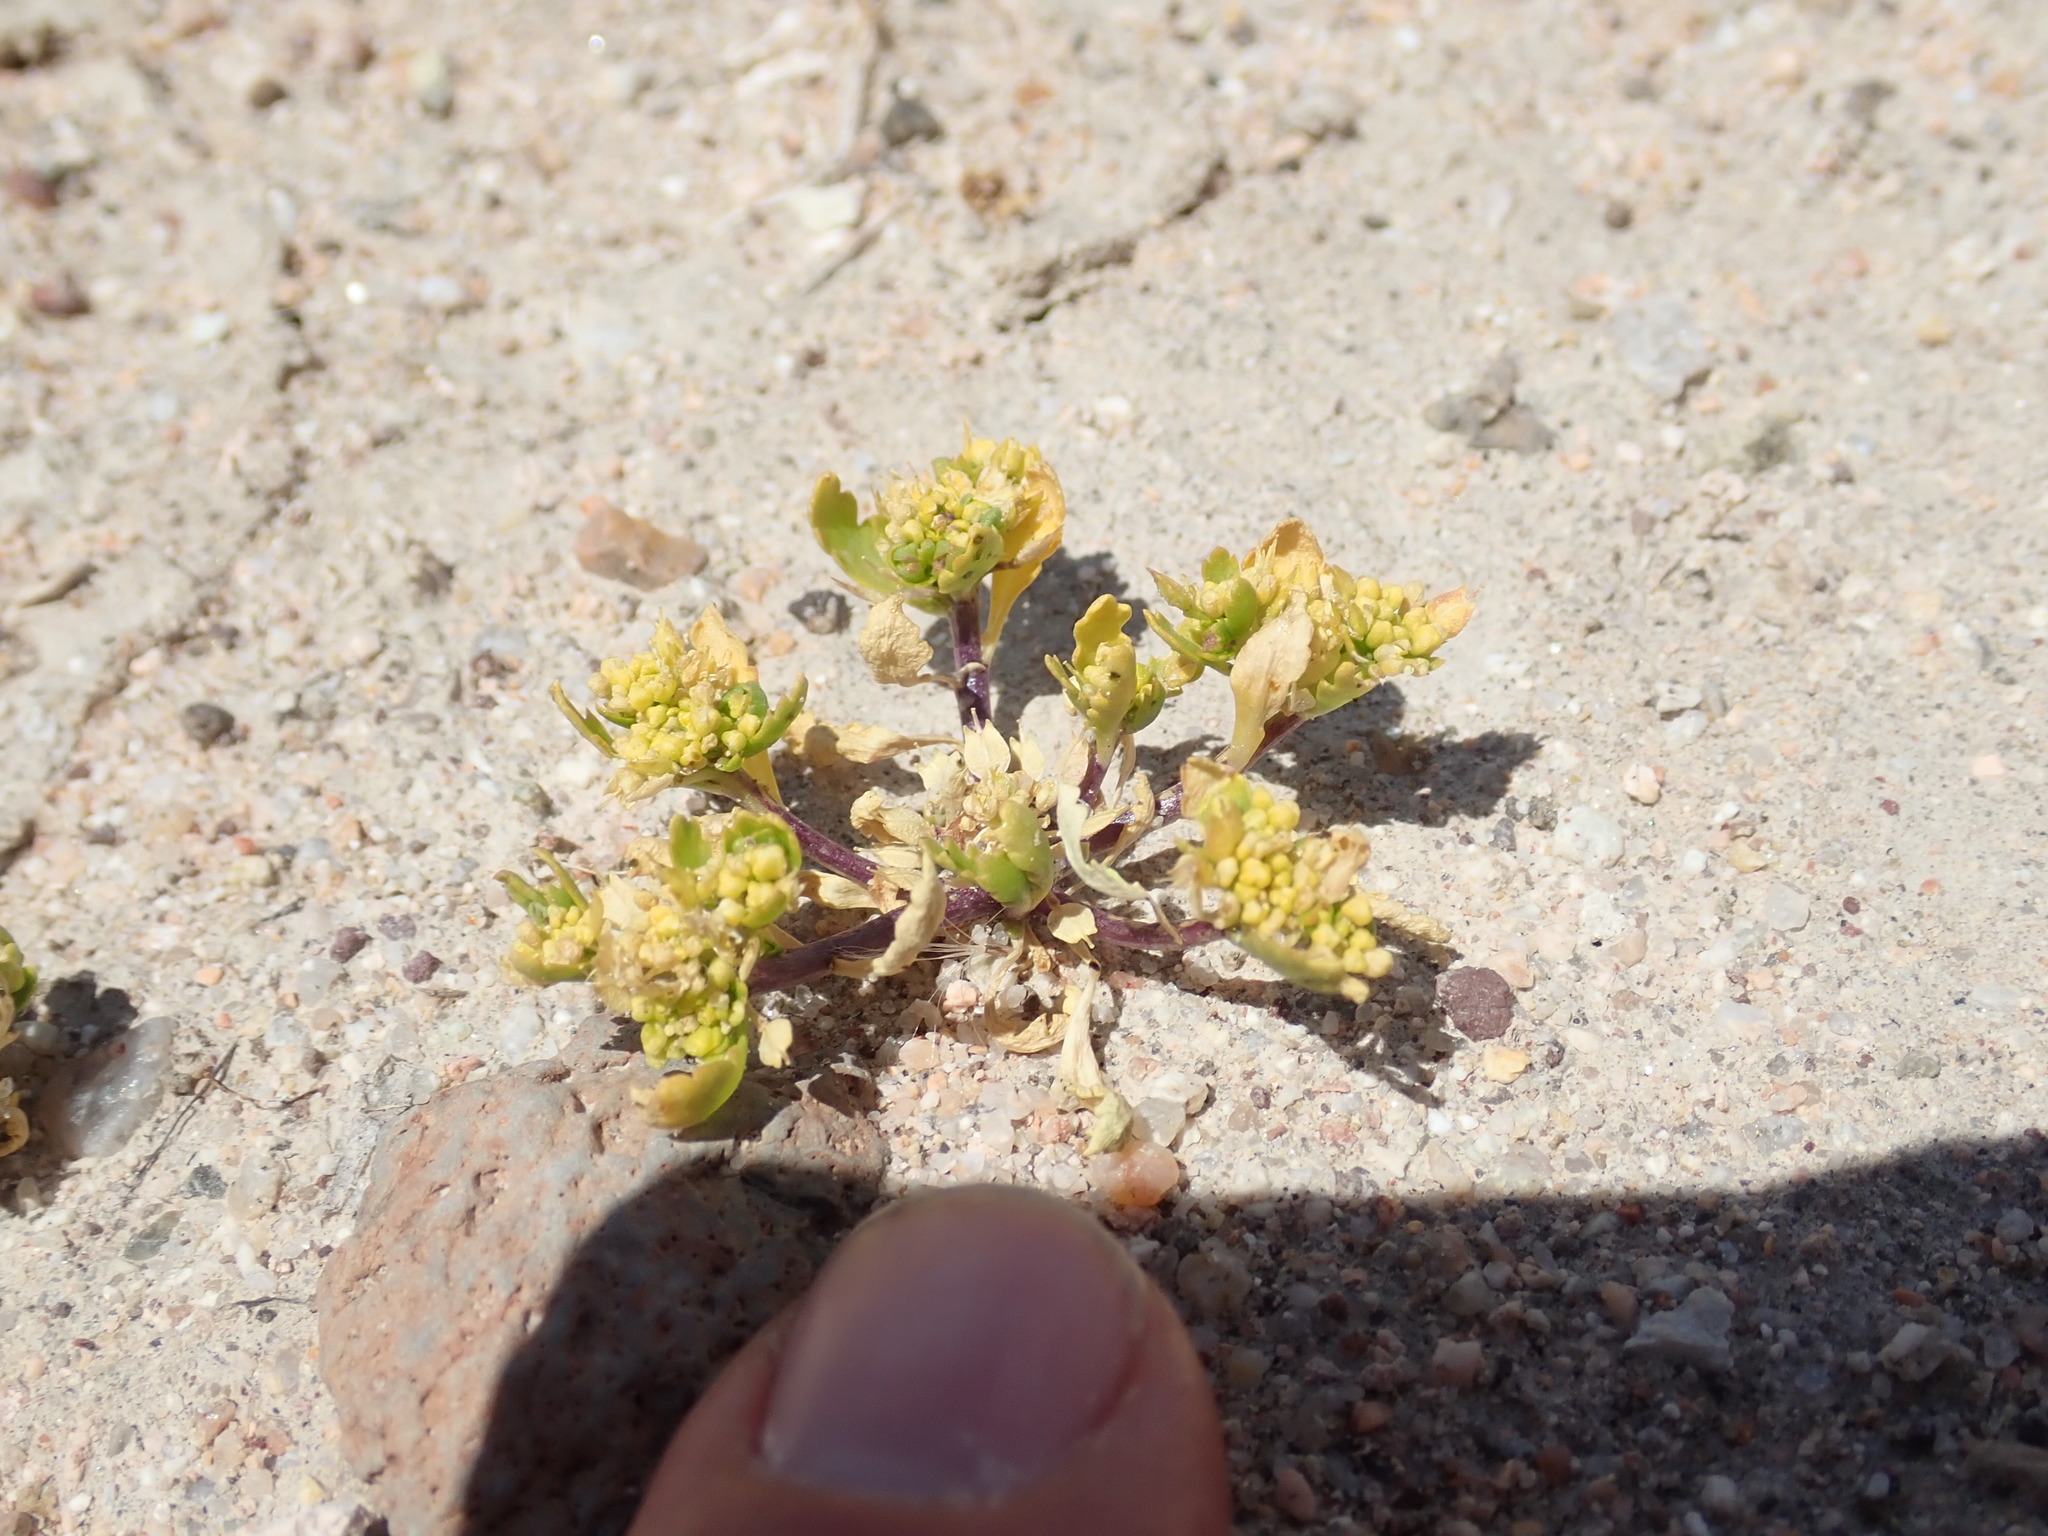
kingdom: Plantae
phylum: Tracheophyta
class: Magnoliopsida
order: Brassicales
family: Brassicaceae
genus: Lepidium
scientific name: Lepidium flavum
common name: Yellow pepperwort
